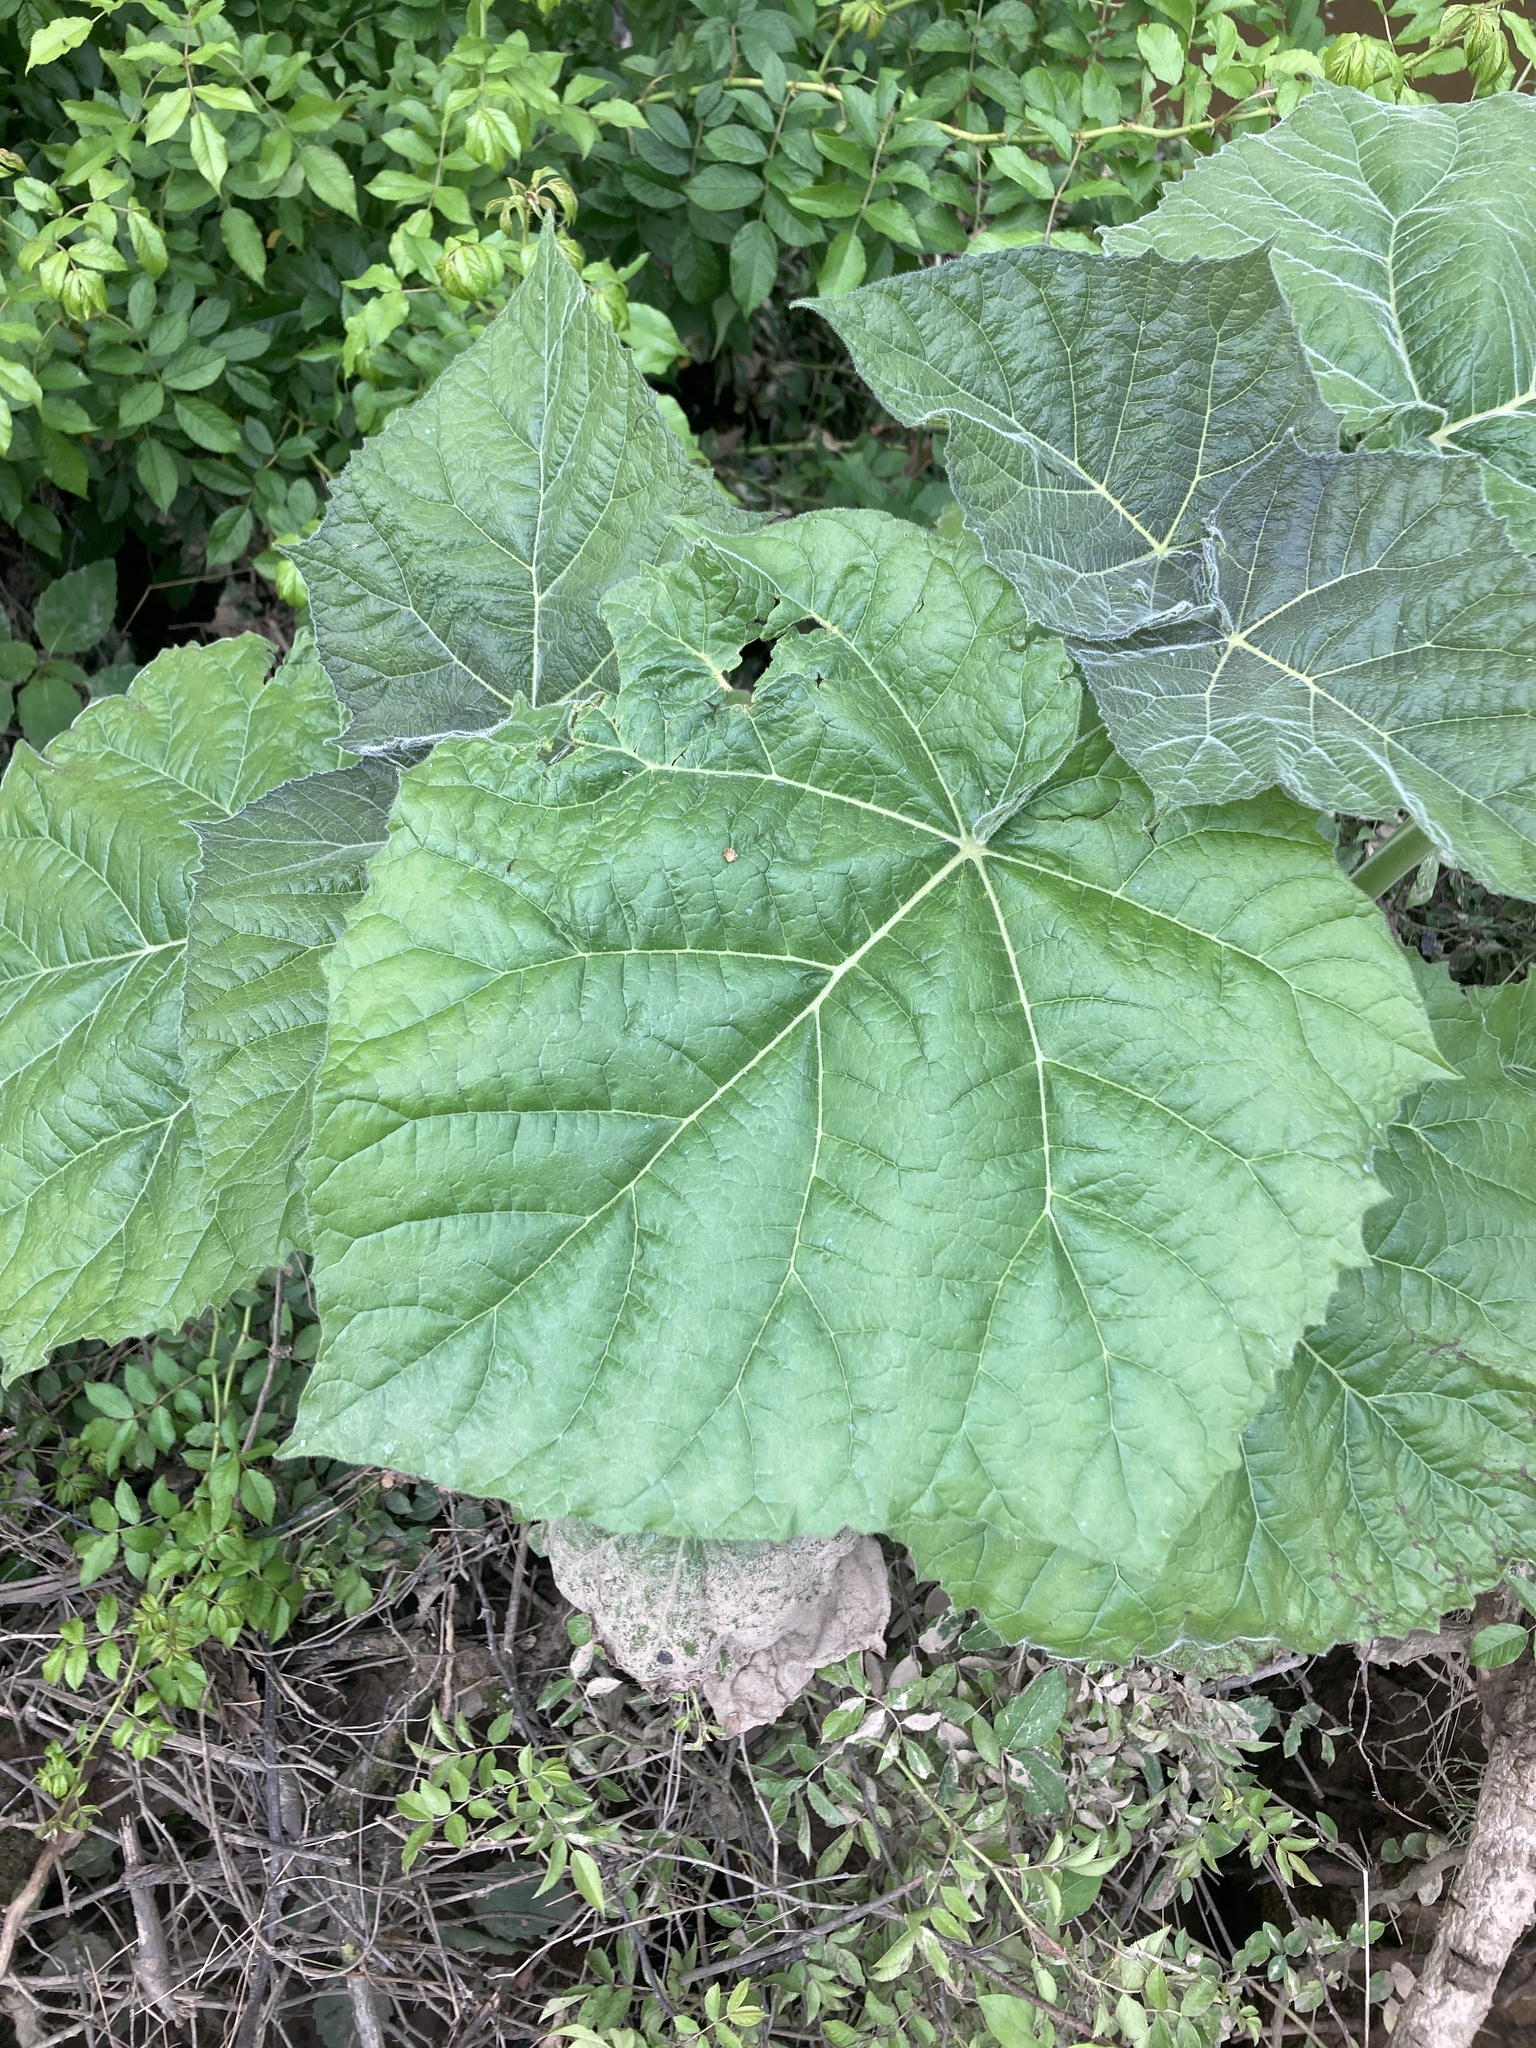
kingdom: Plantae
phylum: Tracheophyta
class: Magnoliopsida
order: Lamiales
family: Paulowniaceae
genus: Paulownia
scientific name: Paulownia tomentosa
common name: Foxglove-tree
